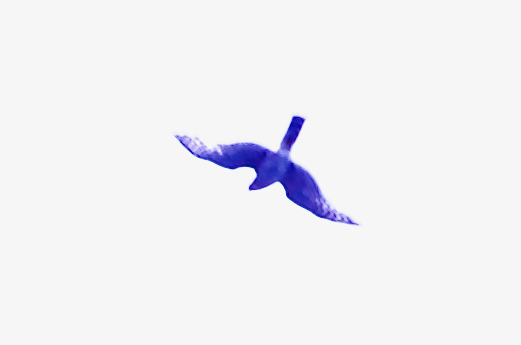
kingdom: Animalia
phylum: Chordata
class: Aves
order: Accipitriformes
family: Accipitridae
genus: Accipiter
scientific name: Accipiter nisus
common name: Eurasian sparrowhawk
